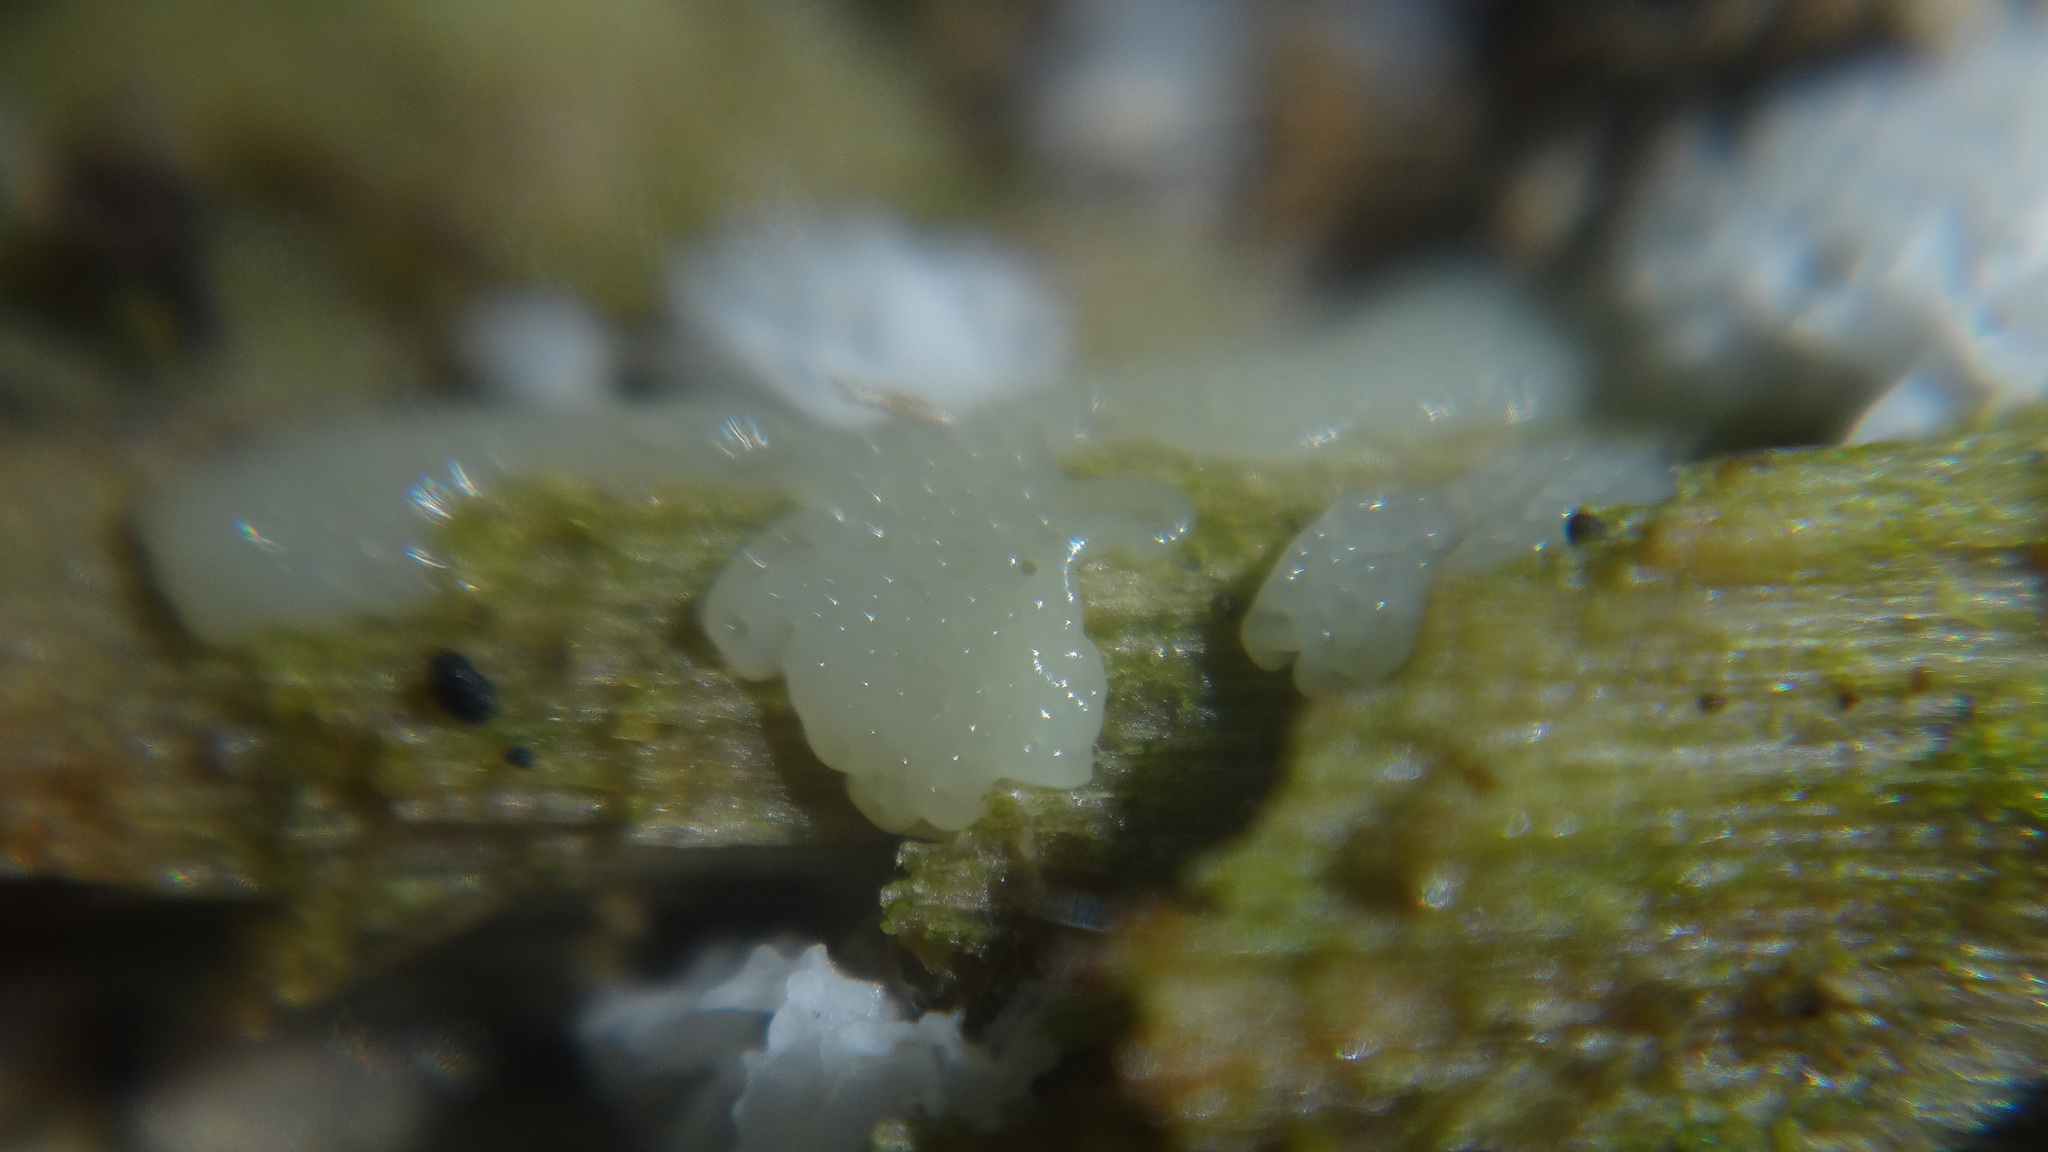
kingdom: Protozoa
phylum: Mycetozoa
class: Protosteliomycetes
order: Ceratiomyxales
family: Ceratiomyxaceae
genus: Ceratiomyxa
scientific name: Ceratiomyxa fruticulosa
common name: Honeycomb coral slime mold
